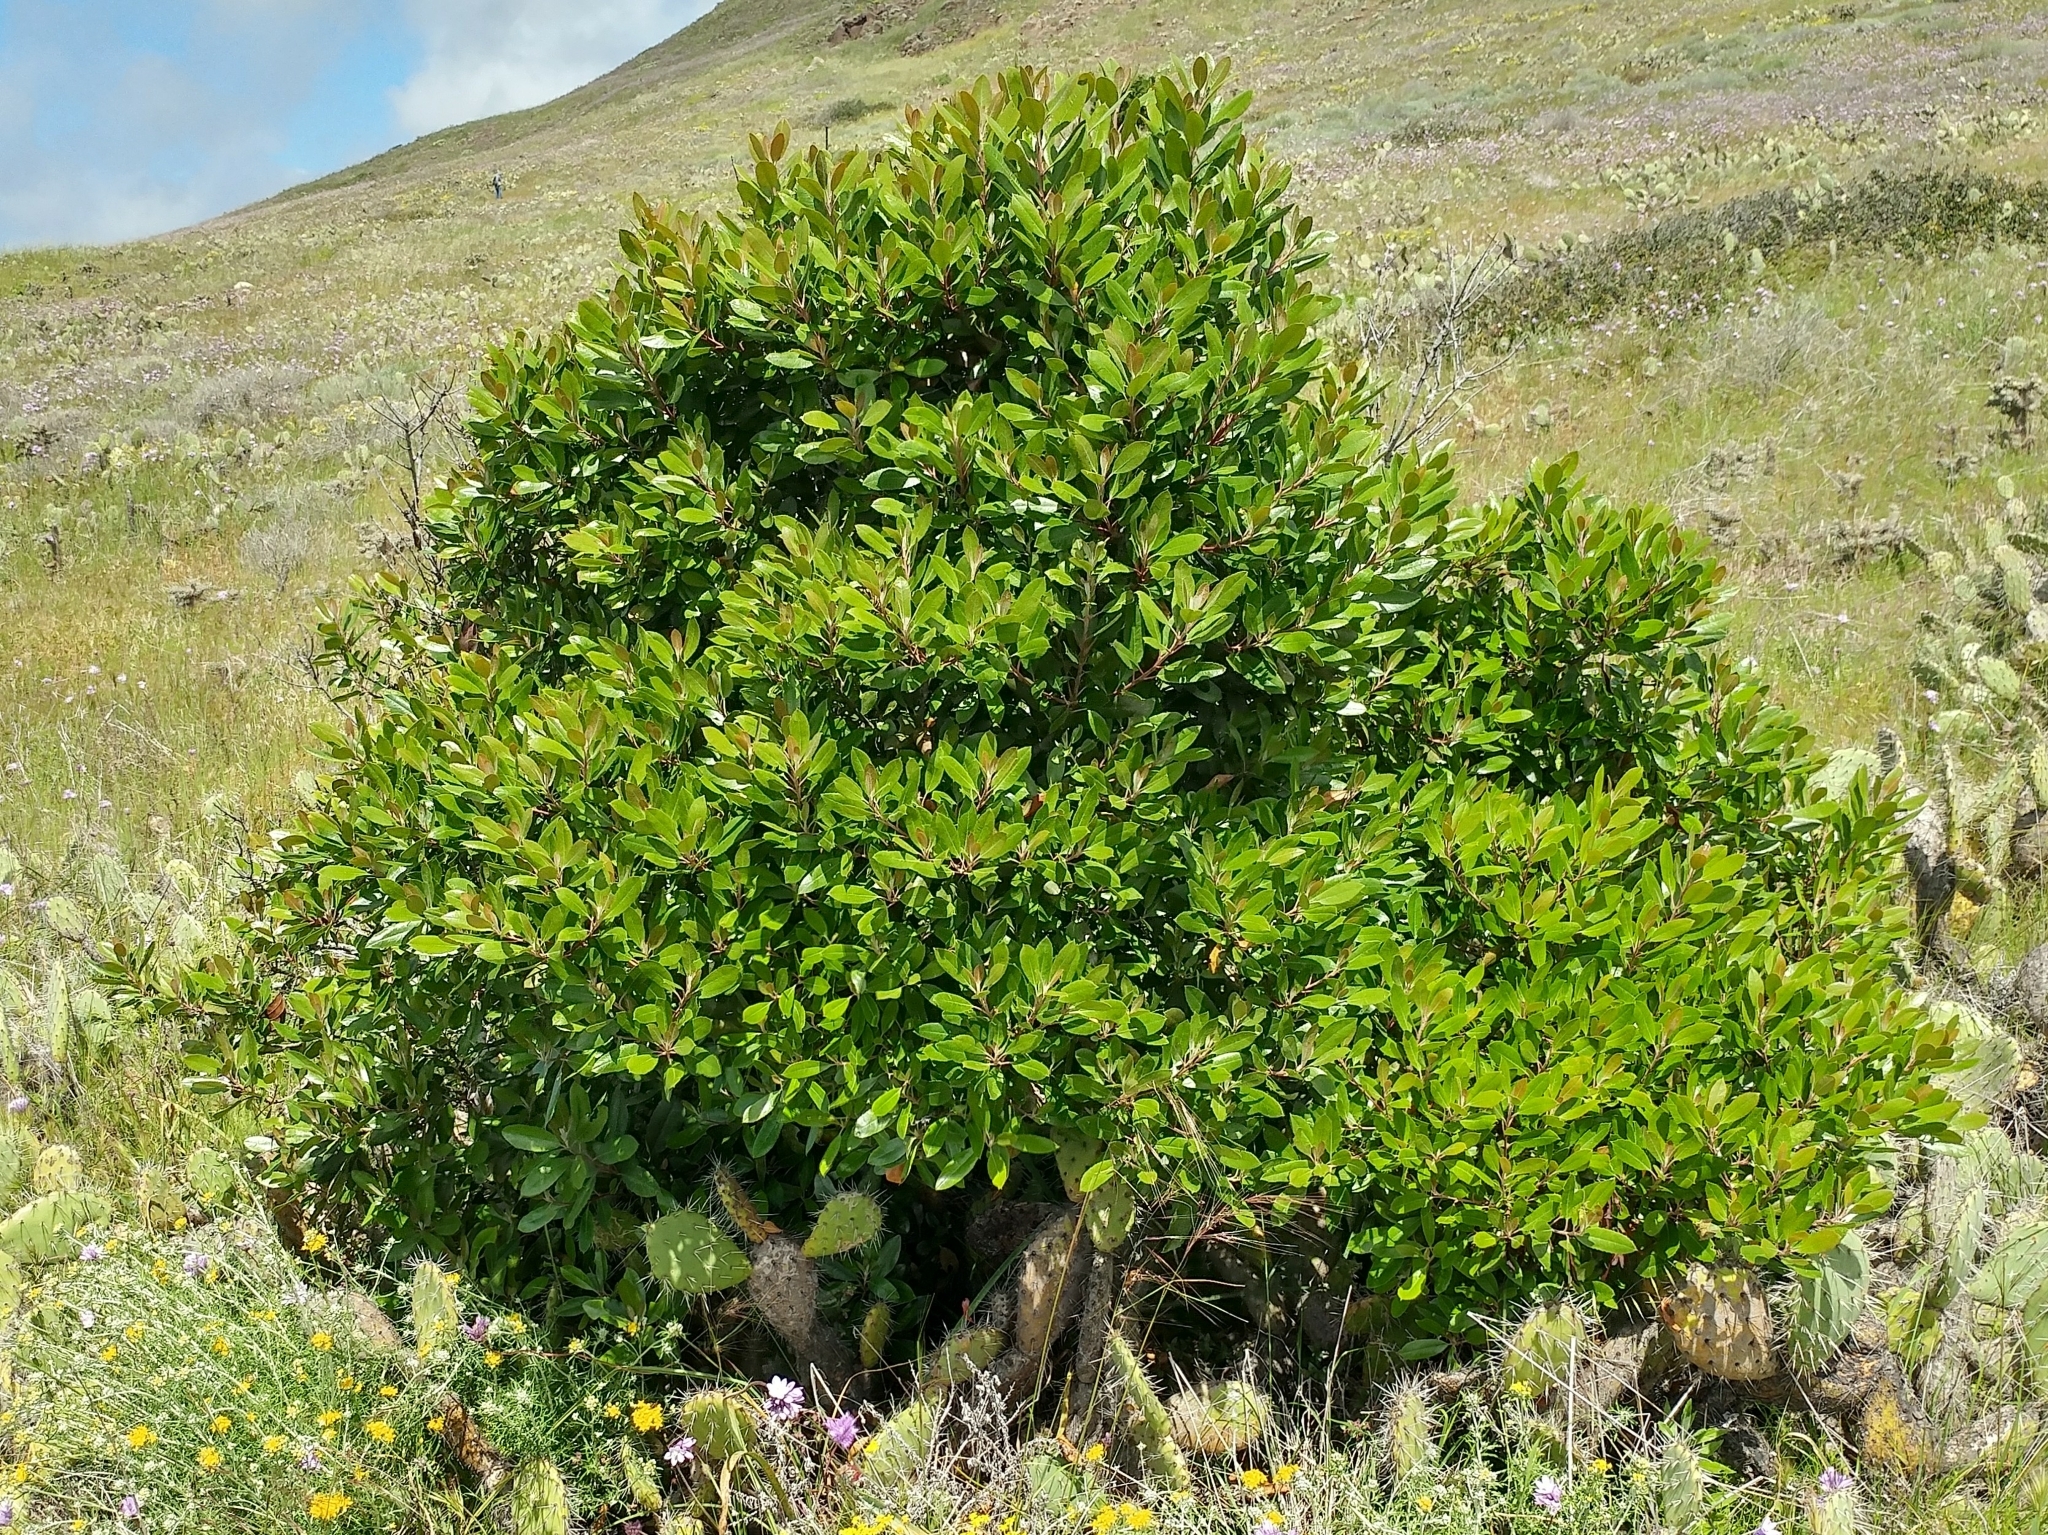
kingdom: Plantae
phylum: Tracheophyta
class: Magnoliopsida
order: Rosales
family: Rosaceae
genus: Heteromeles
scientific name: Heteromeles arbutifolia
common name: California-holly
